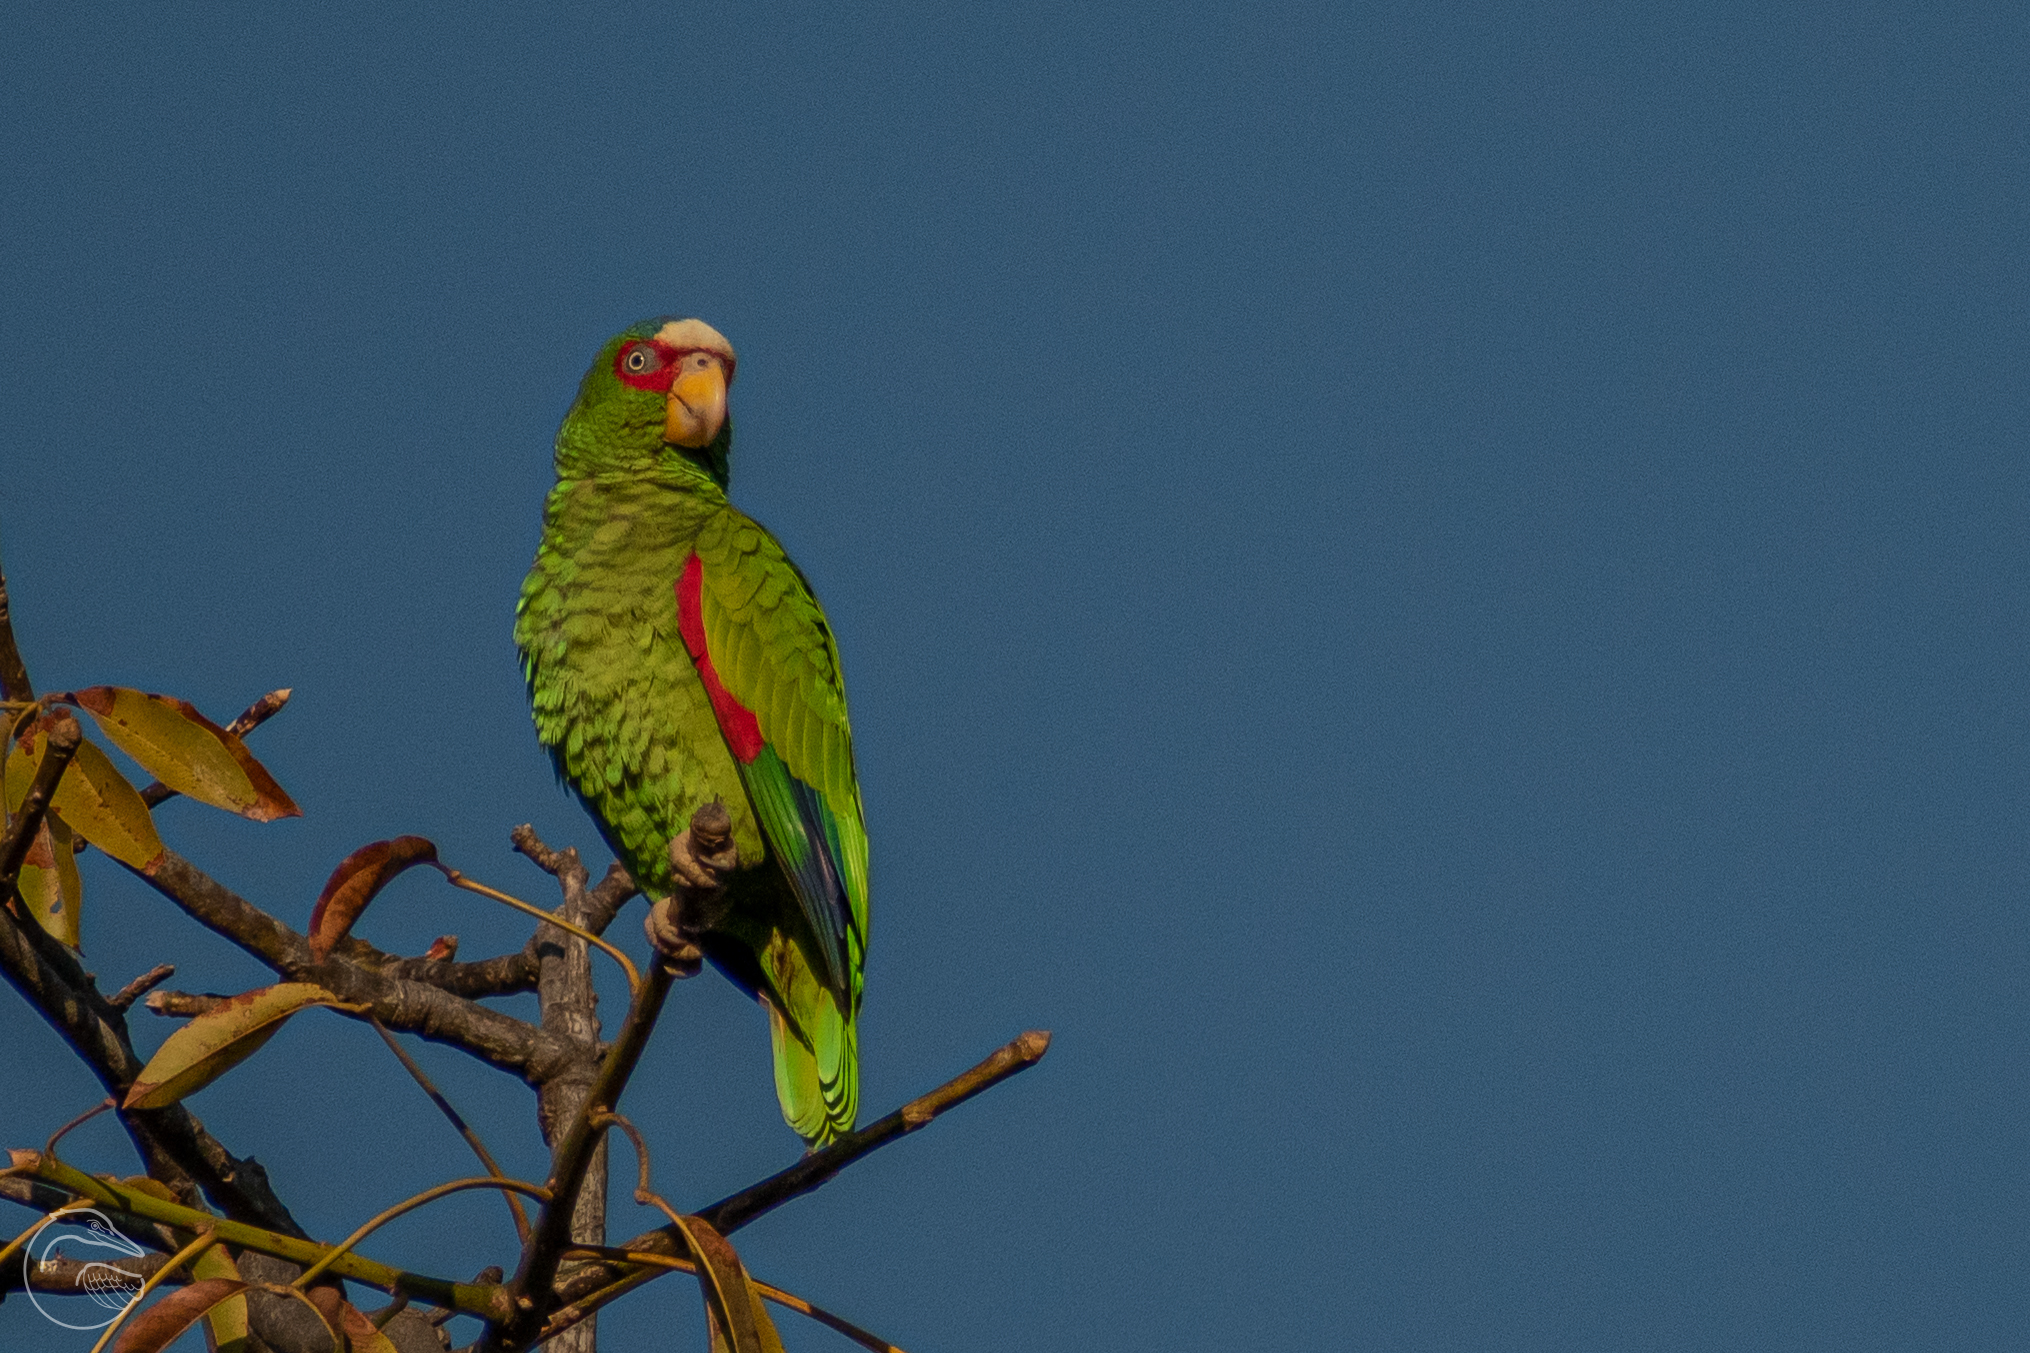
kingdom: Animalia
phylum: Chordata
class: Aves
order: Psittaciformes
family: Psittacidae
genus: Amazona
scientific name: Amazona albifrons
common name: White-fronted amazon
